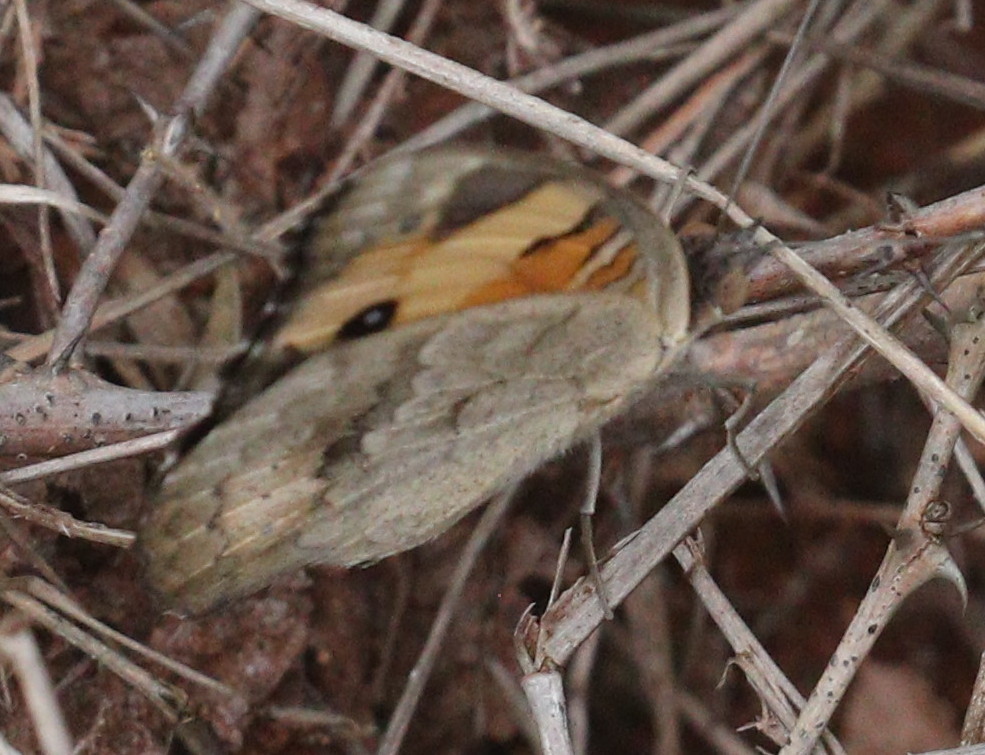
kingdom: Animalia
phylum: Arthropoda
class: Insecta
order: Lepidoptera
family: Nymphalidae
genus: Junonia
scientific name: Junonia hierta
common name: Yellow pansy
